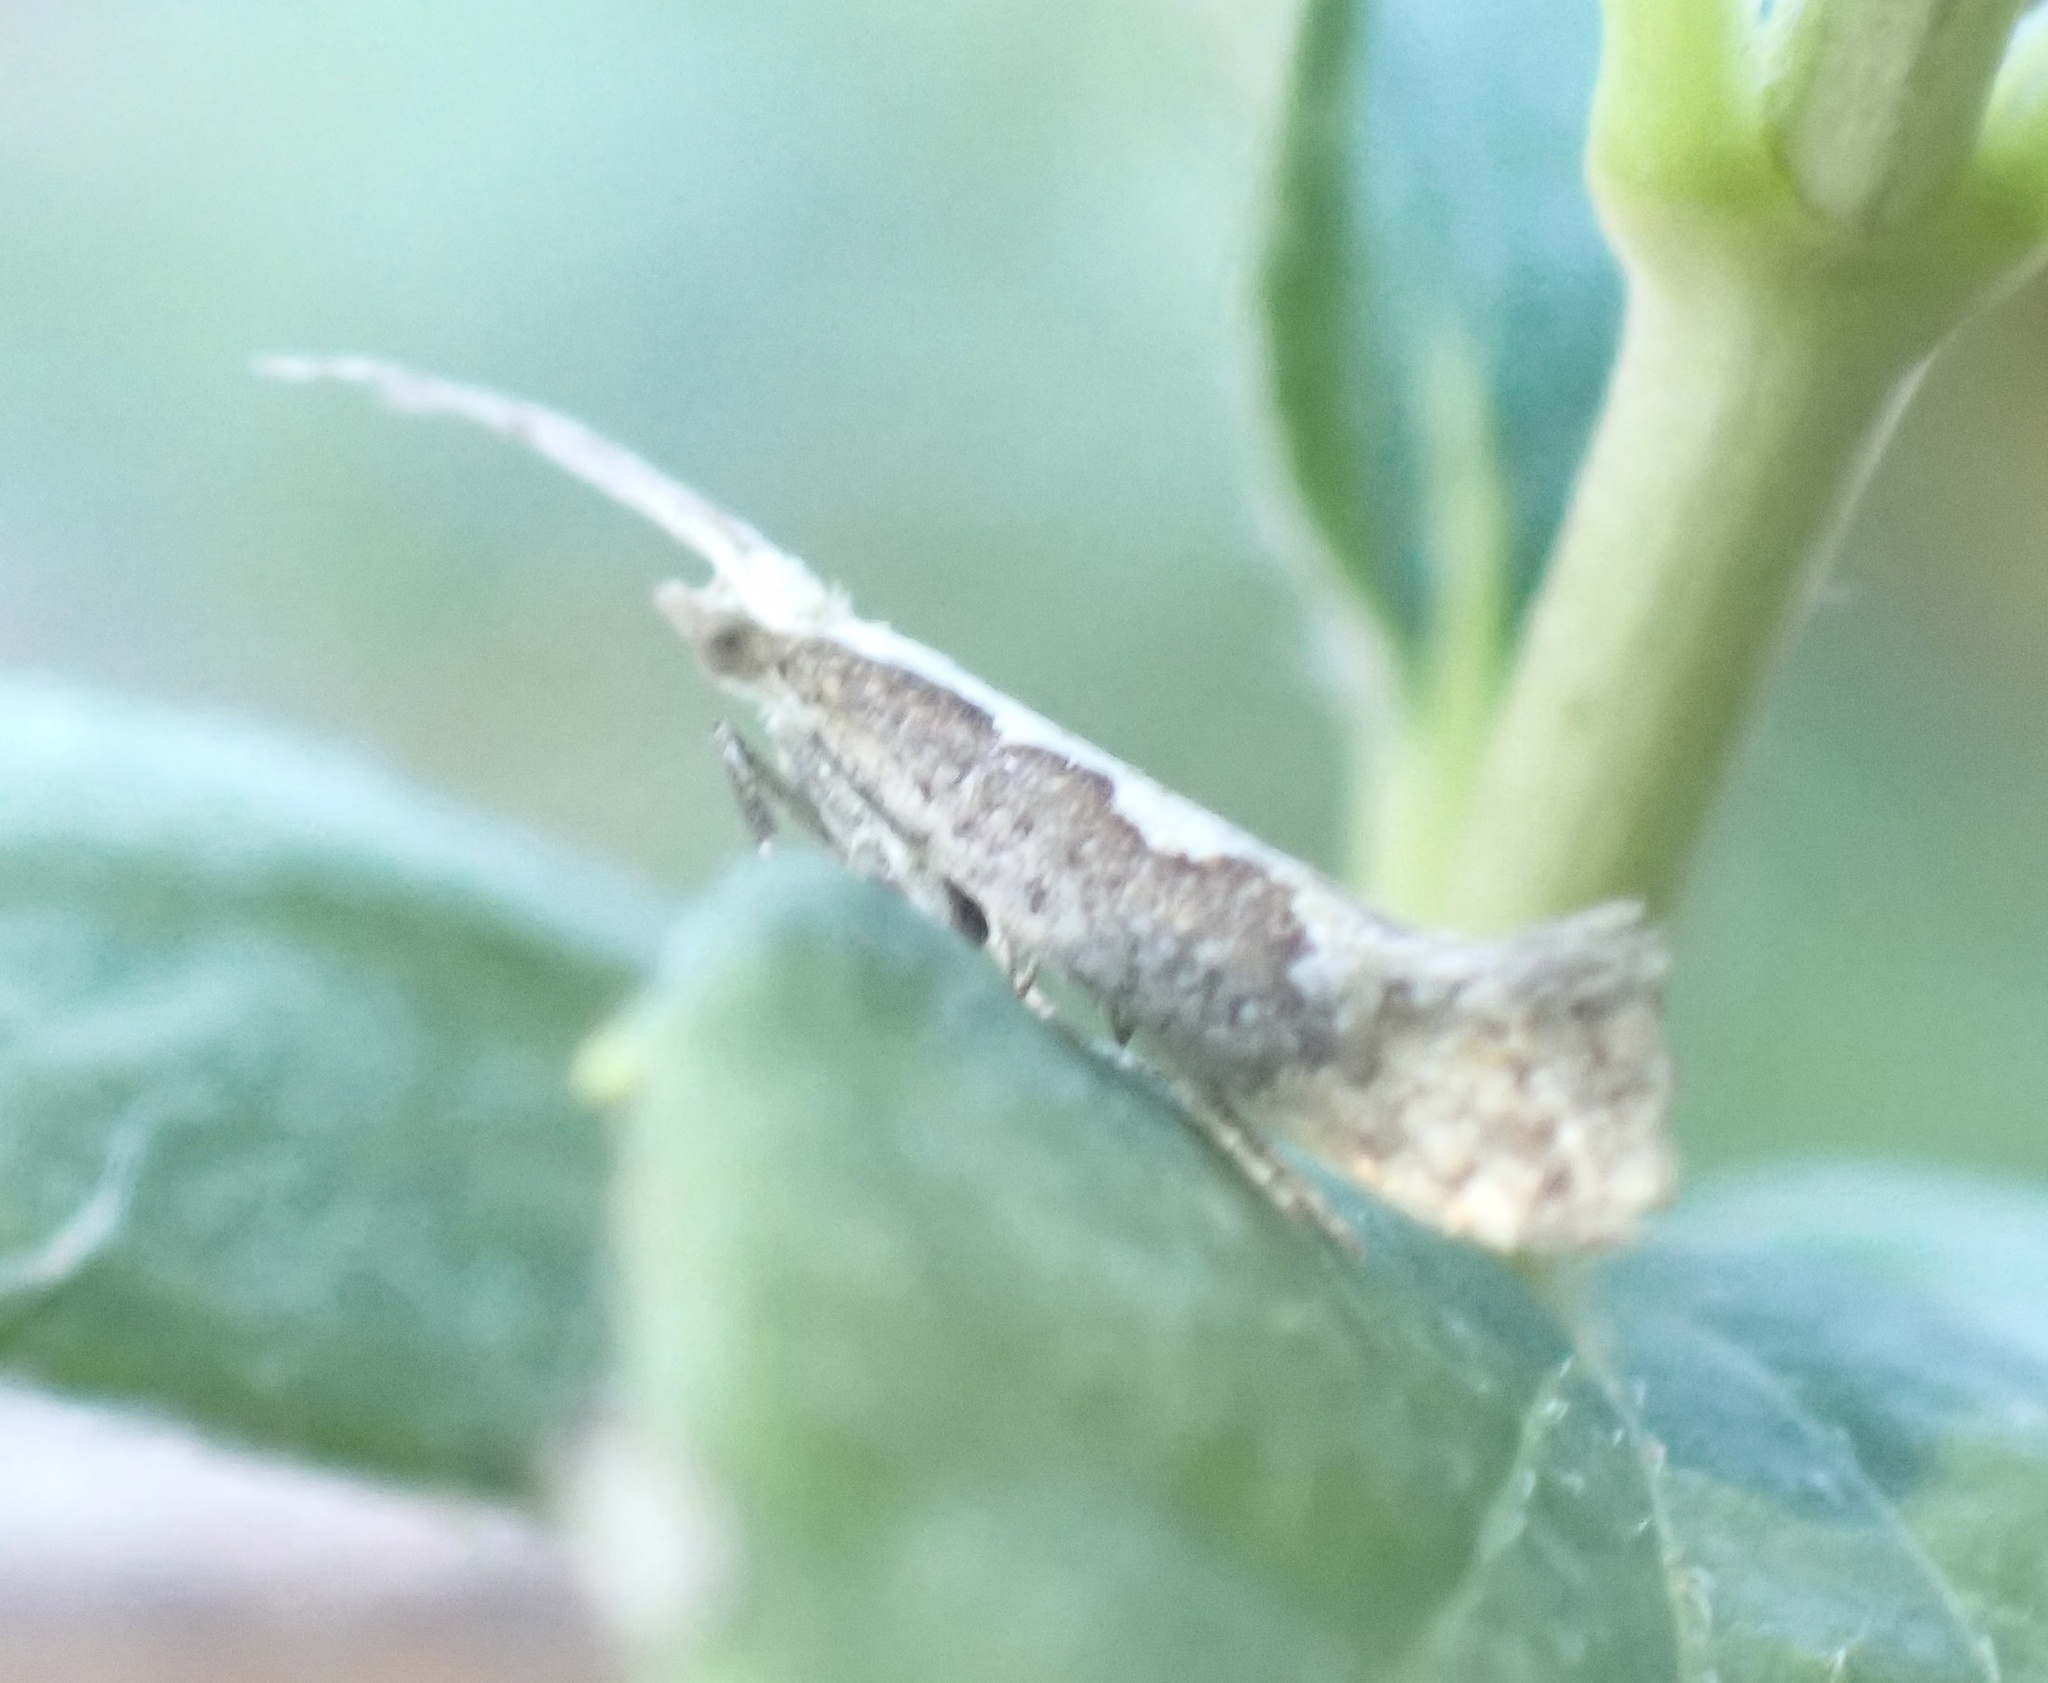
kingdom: Animalia
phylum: Arthropoda
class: Insecta
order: Lepidoptera
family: Plutellidae
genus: Plutella
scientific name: Plutella xylostella
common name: Diamond-back moth
